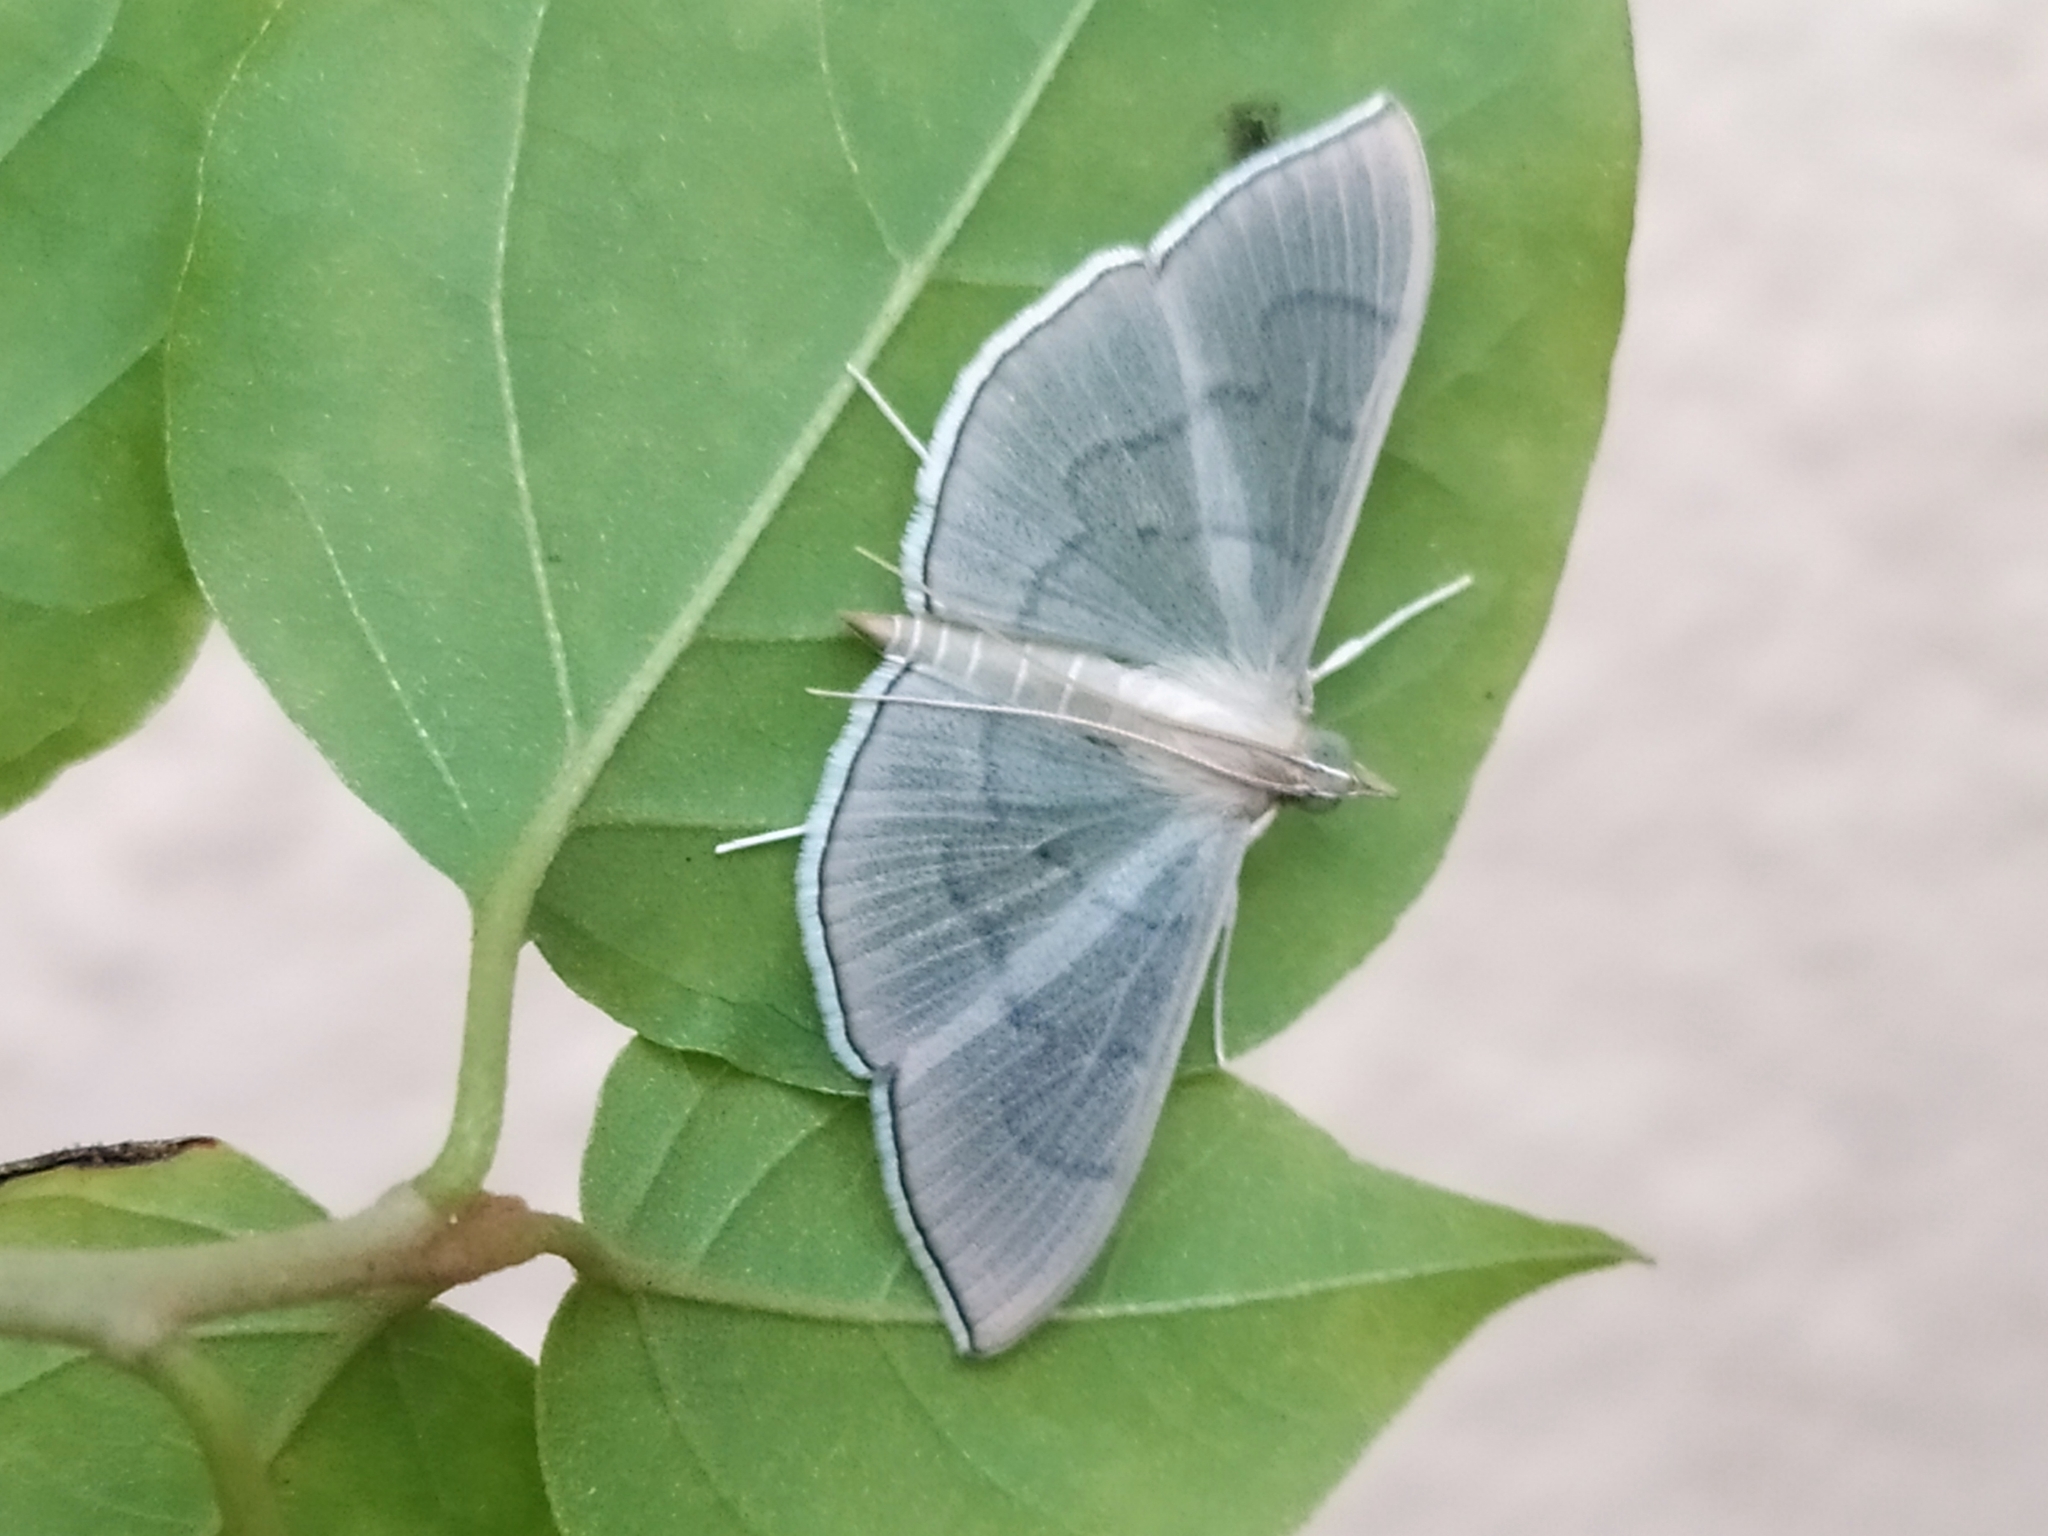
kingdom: Animalia
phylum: Arthropoda
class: Insecta
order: Lepidoptera
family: Crambidae
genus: Lamprophaia
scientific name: Lamprophaia ablactalis
